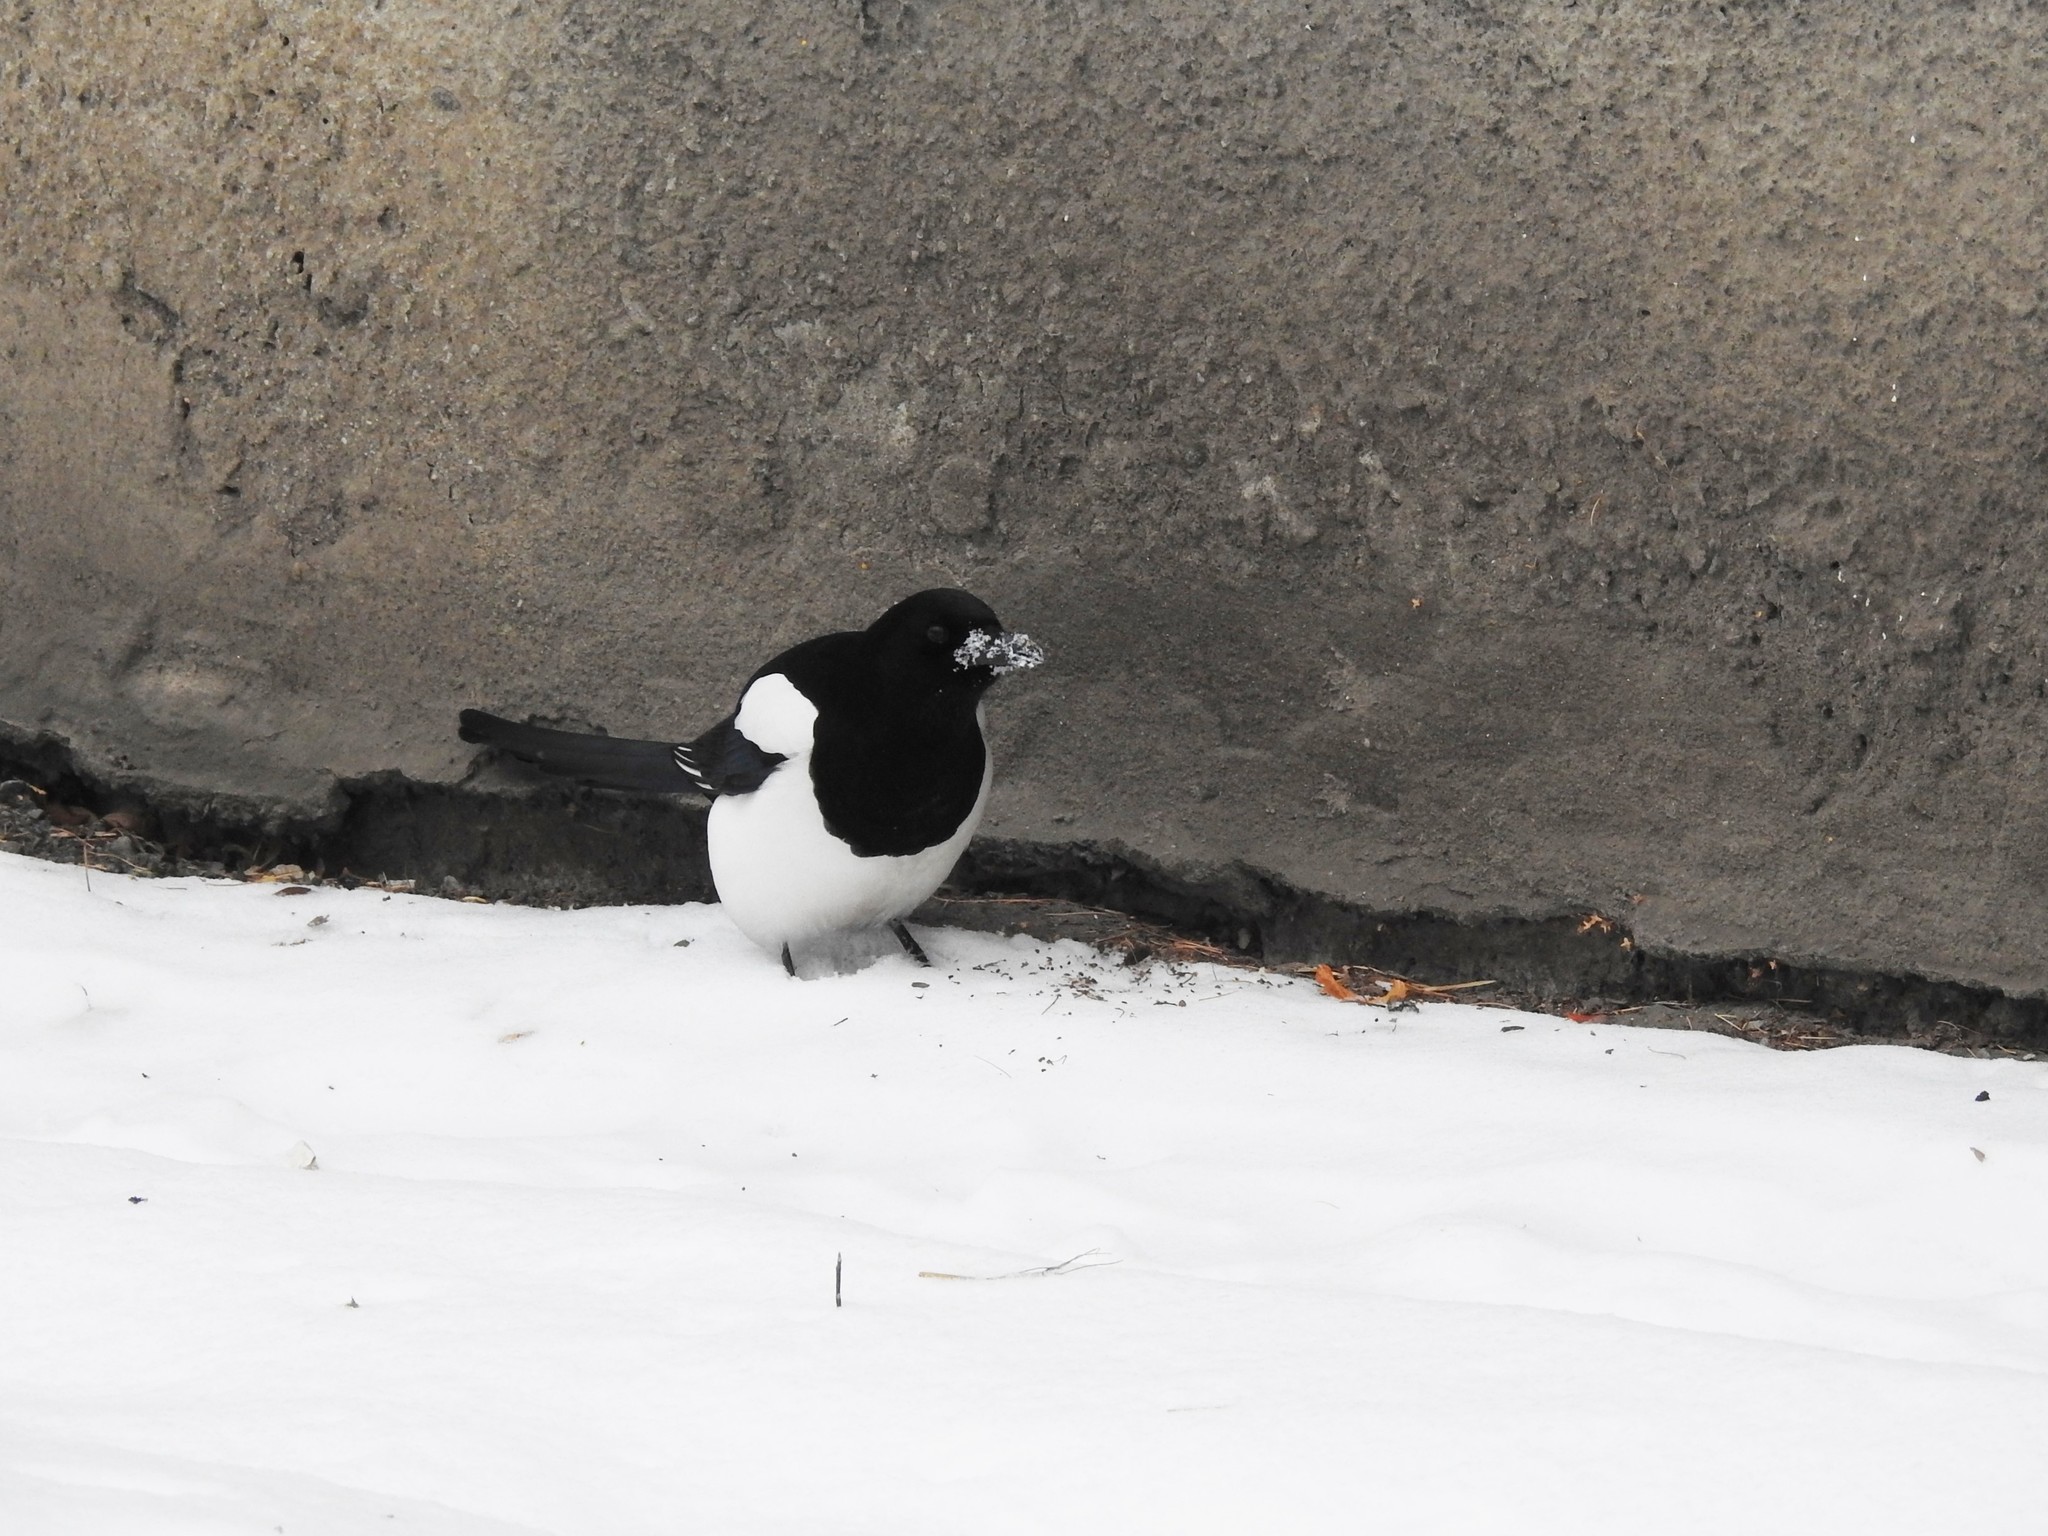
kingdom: Animalia
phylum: Chordata
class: Aves
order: Passeriformes
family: Corvidae
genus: Pica
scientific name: Pica pica
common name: Eurasian magpie
